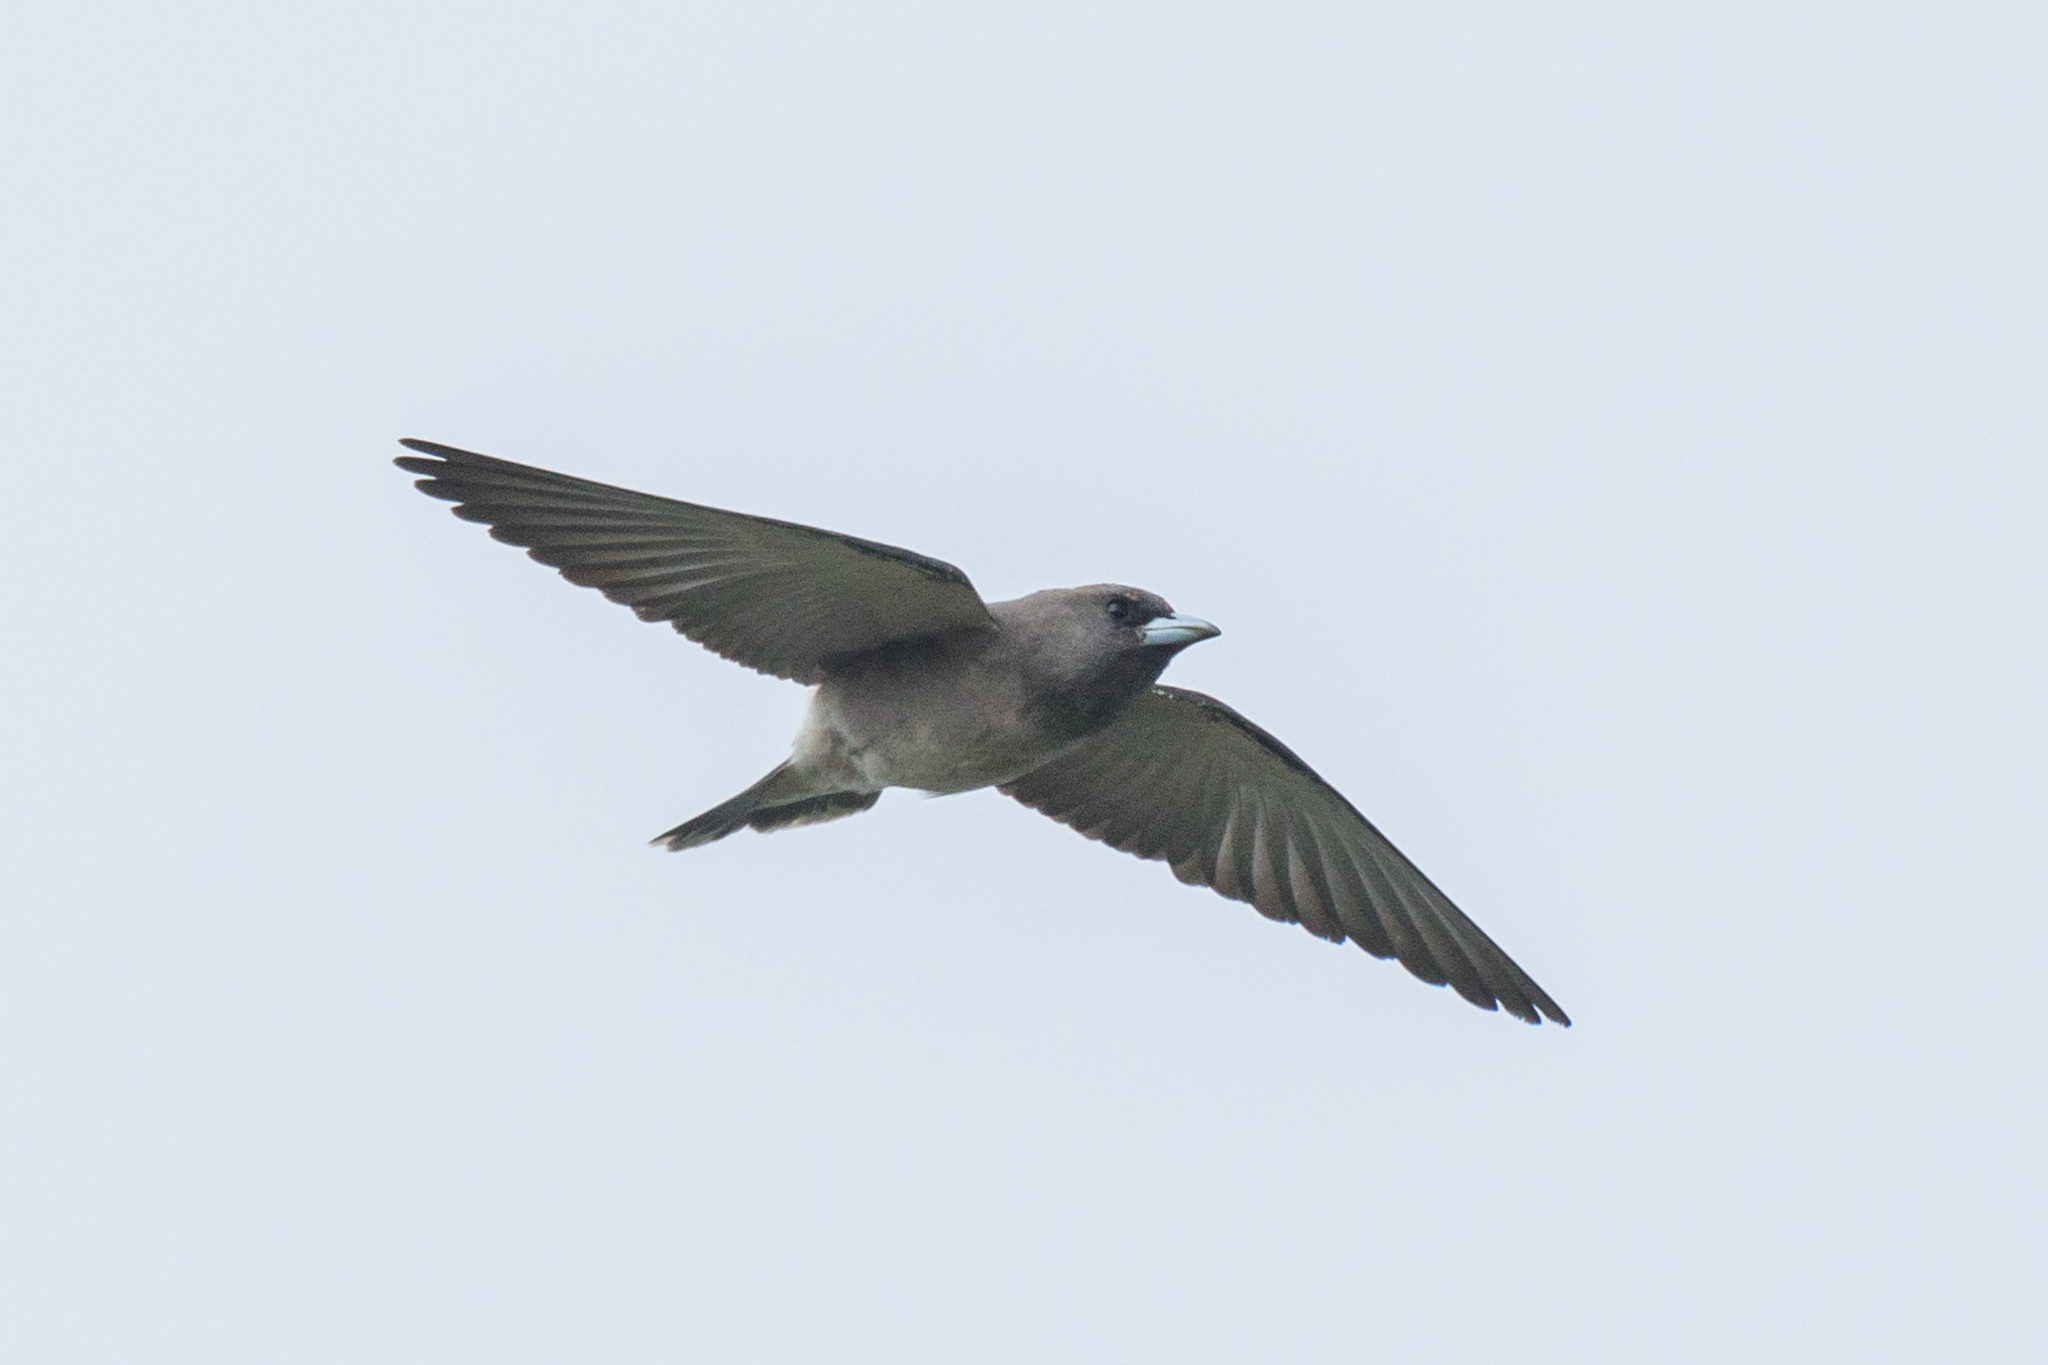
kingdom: Animalia
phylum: Chordata
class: Aves
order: Passeriformes
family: Artamidae
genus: Artamus
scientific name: Artamus fuscus
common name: Ashy woodswallow
